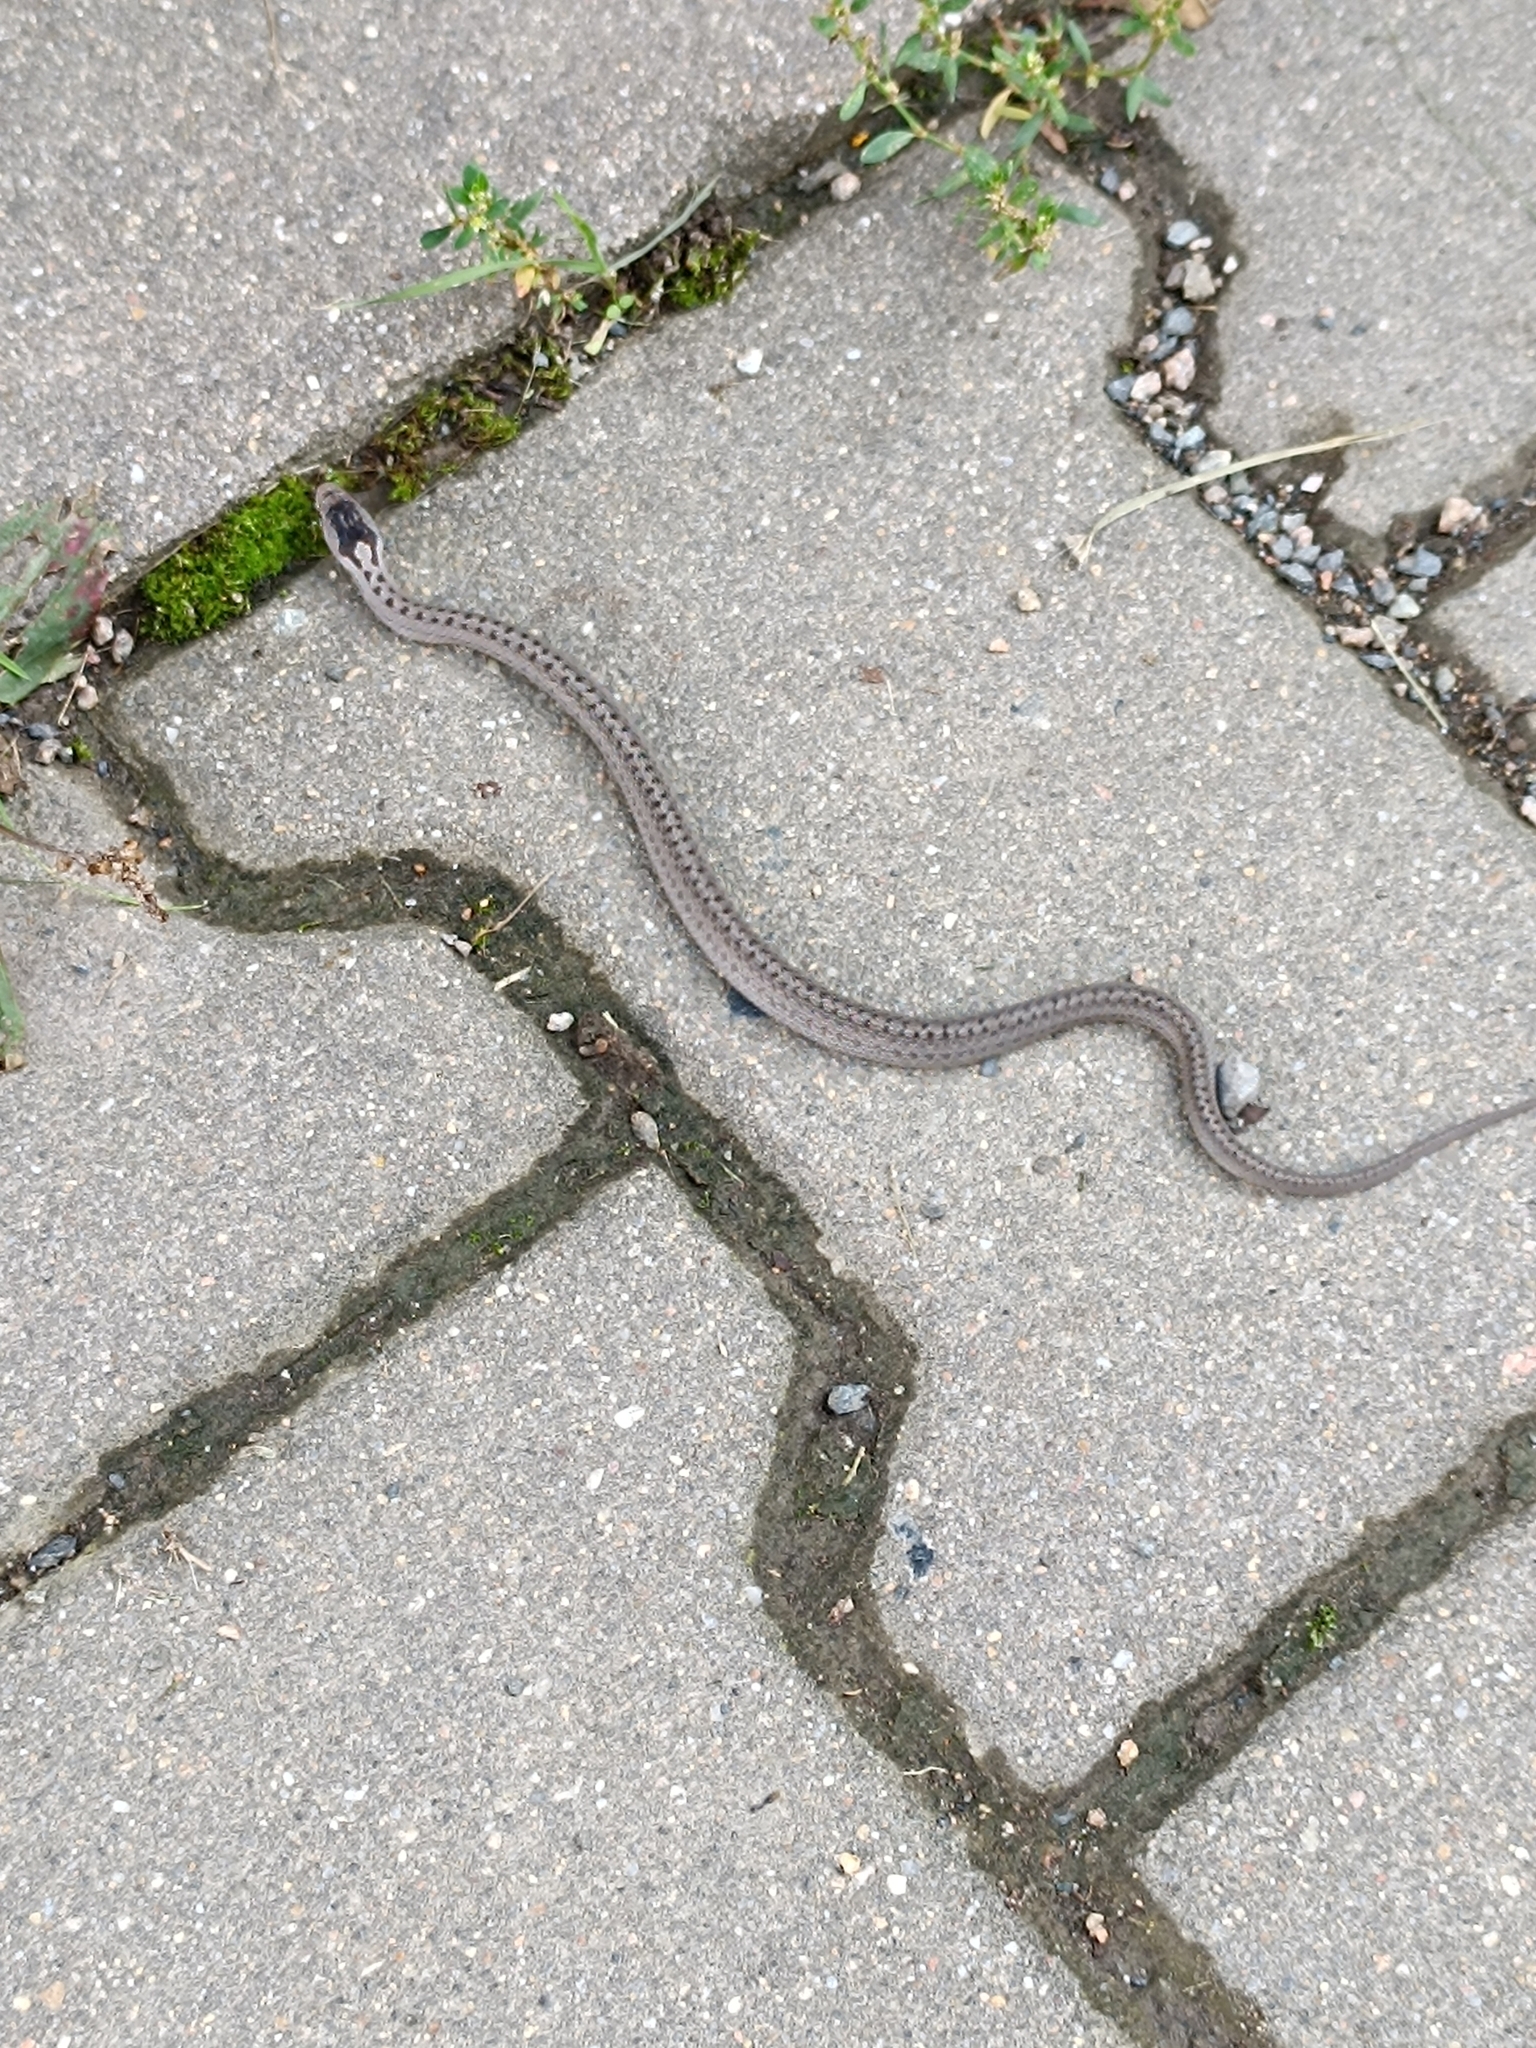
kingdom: Animalia
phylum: Chordata
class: Squamata
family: Colubridae
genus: Coronella
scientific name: Coronella austriaca
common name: Smooth snake
